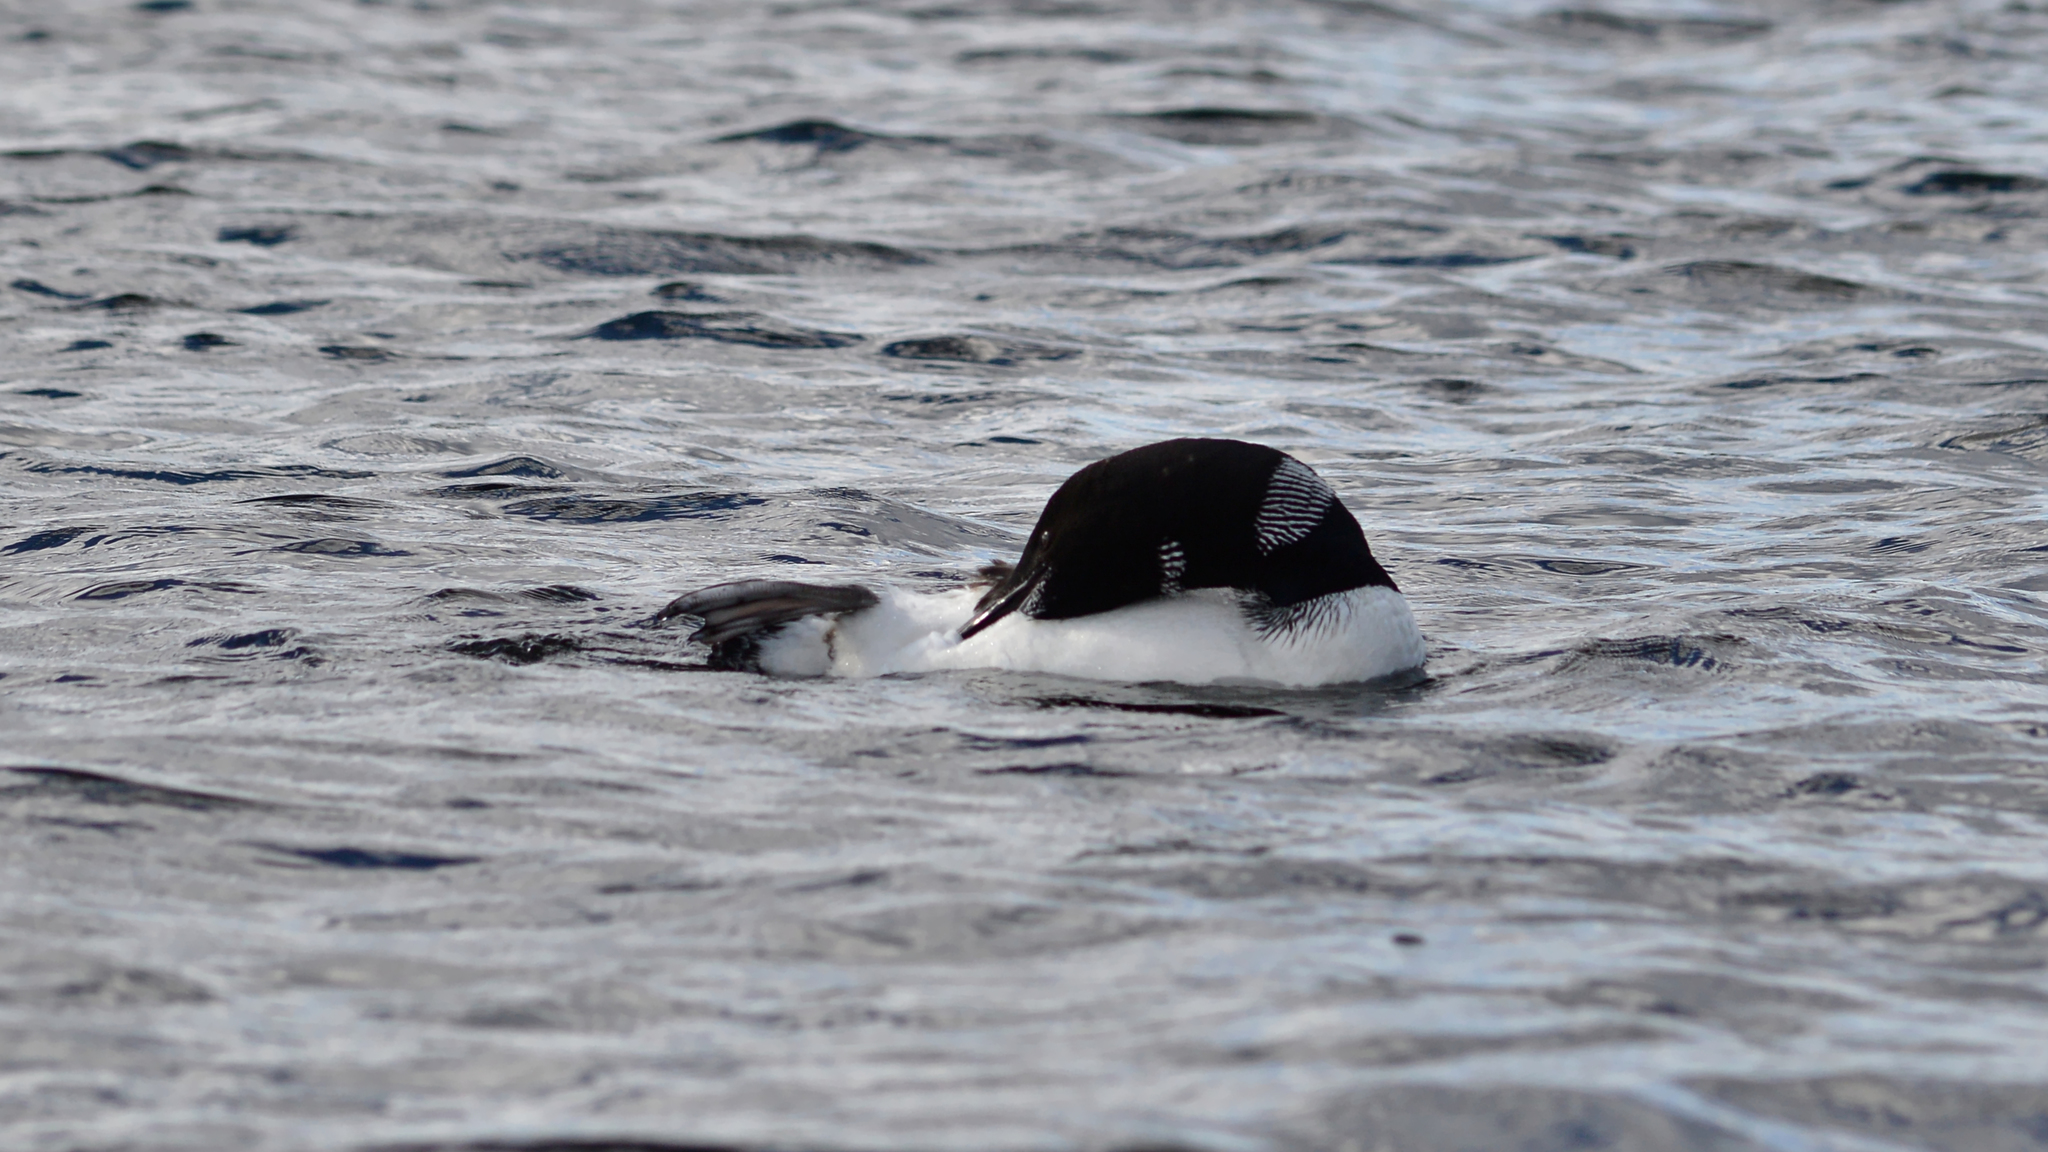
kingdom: Animalia
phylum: Chordata
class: Aves
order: Gaviiformes
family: Gaviidae
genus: Gavia
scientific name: Gavia immer
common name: Common loon
